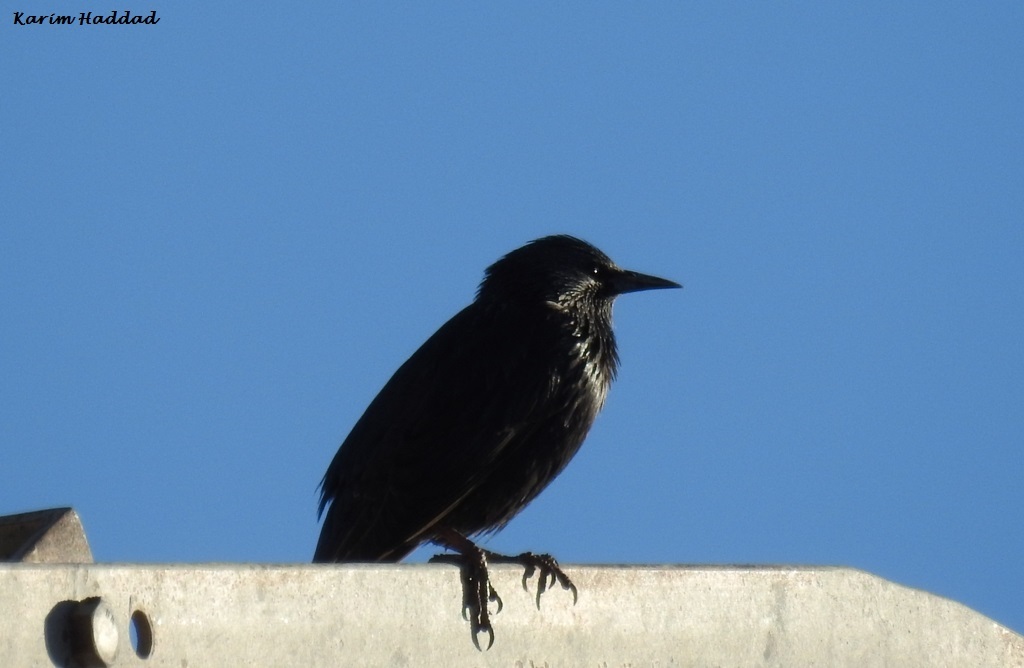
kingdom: Animalia
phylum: Chordata
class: Aves
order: Passeriformes
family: Sturnidae
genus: Sturnus
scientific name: Sturnus unicolor
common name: Spotless starling
